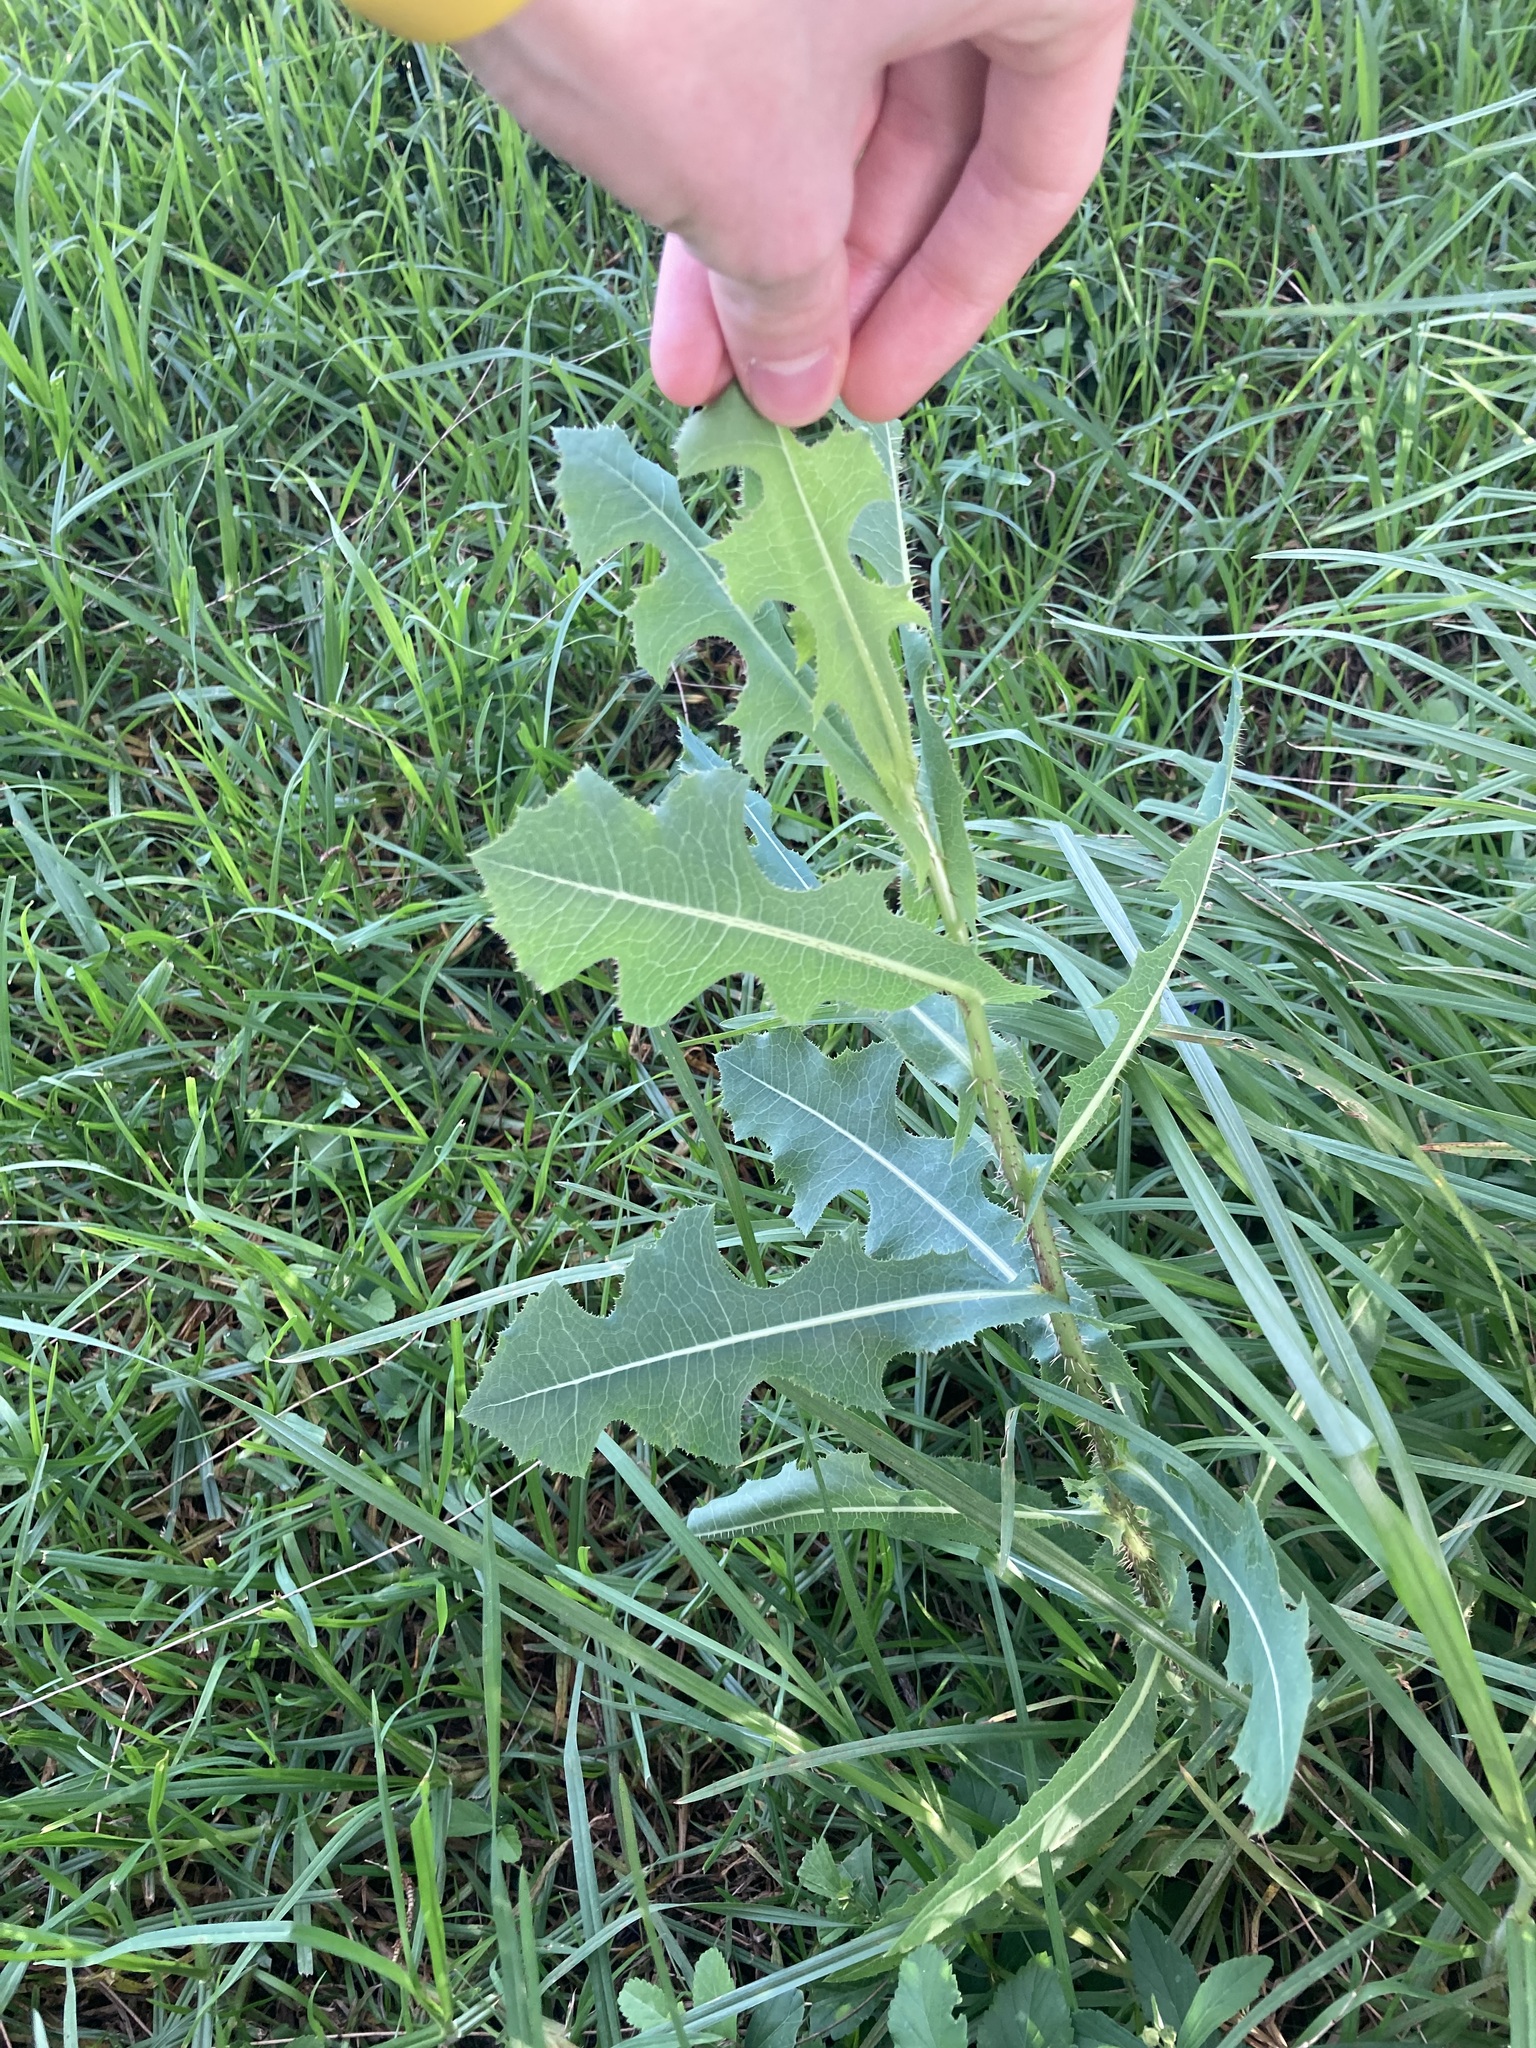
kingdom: Plantae
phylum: Tracheophyta
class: Magnoliopsida
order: Asterales
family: Asteraceae
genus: Lactuca
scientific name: Lactuca serriola
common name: Prickly lettuce
